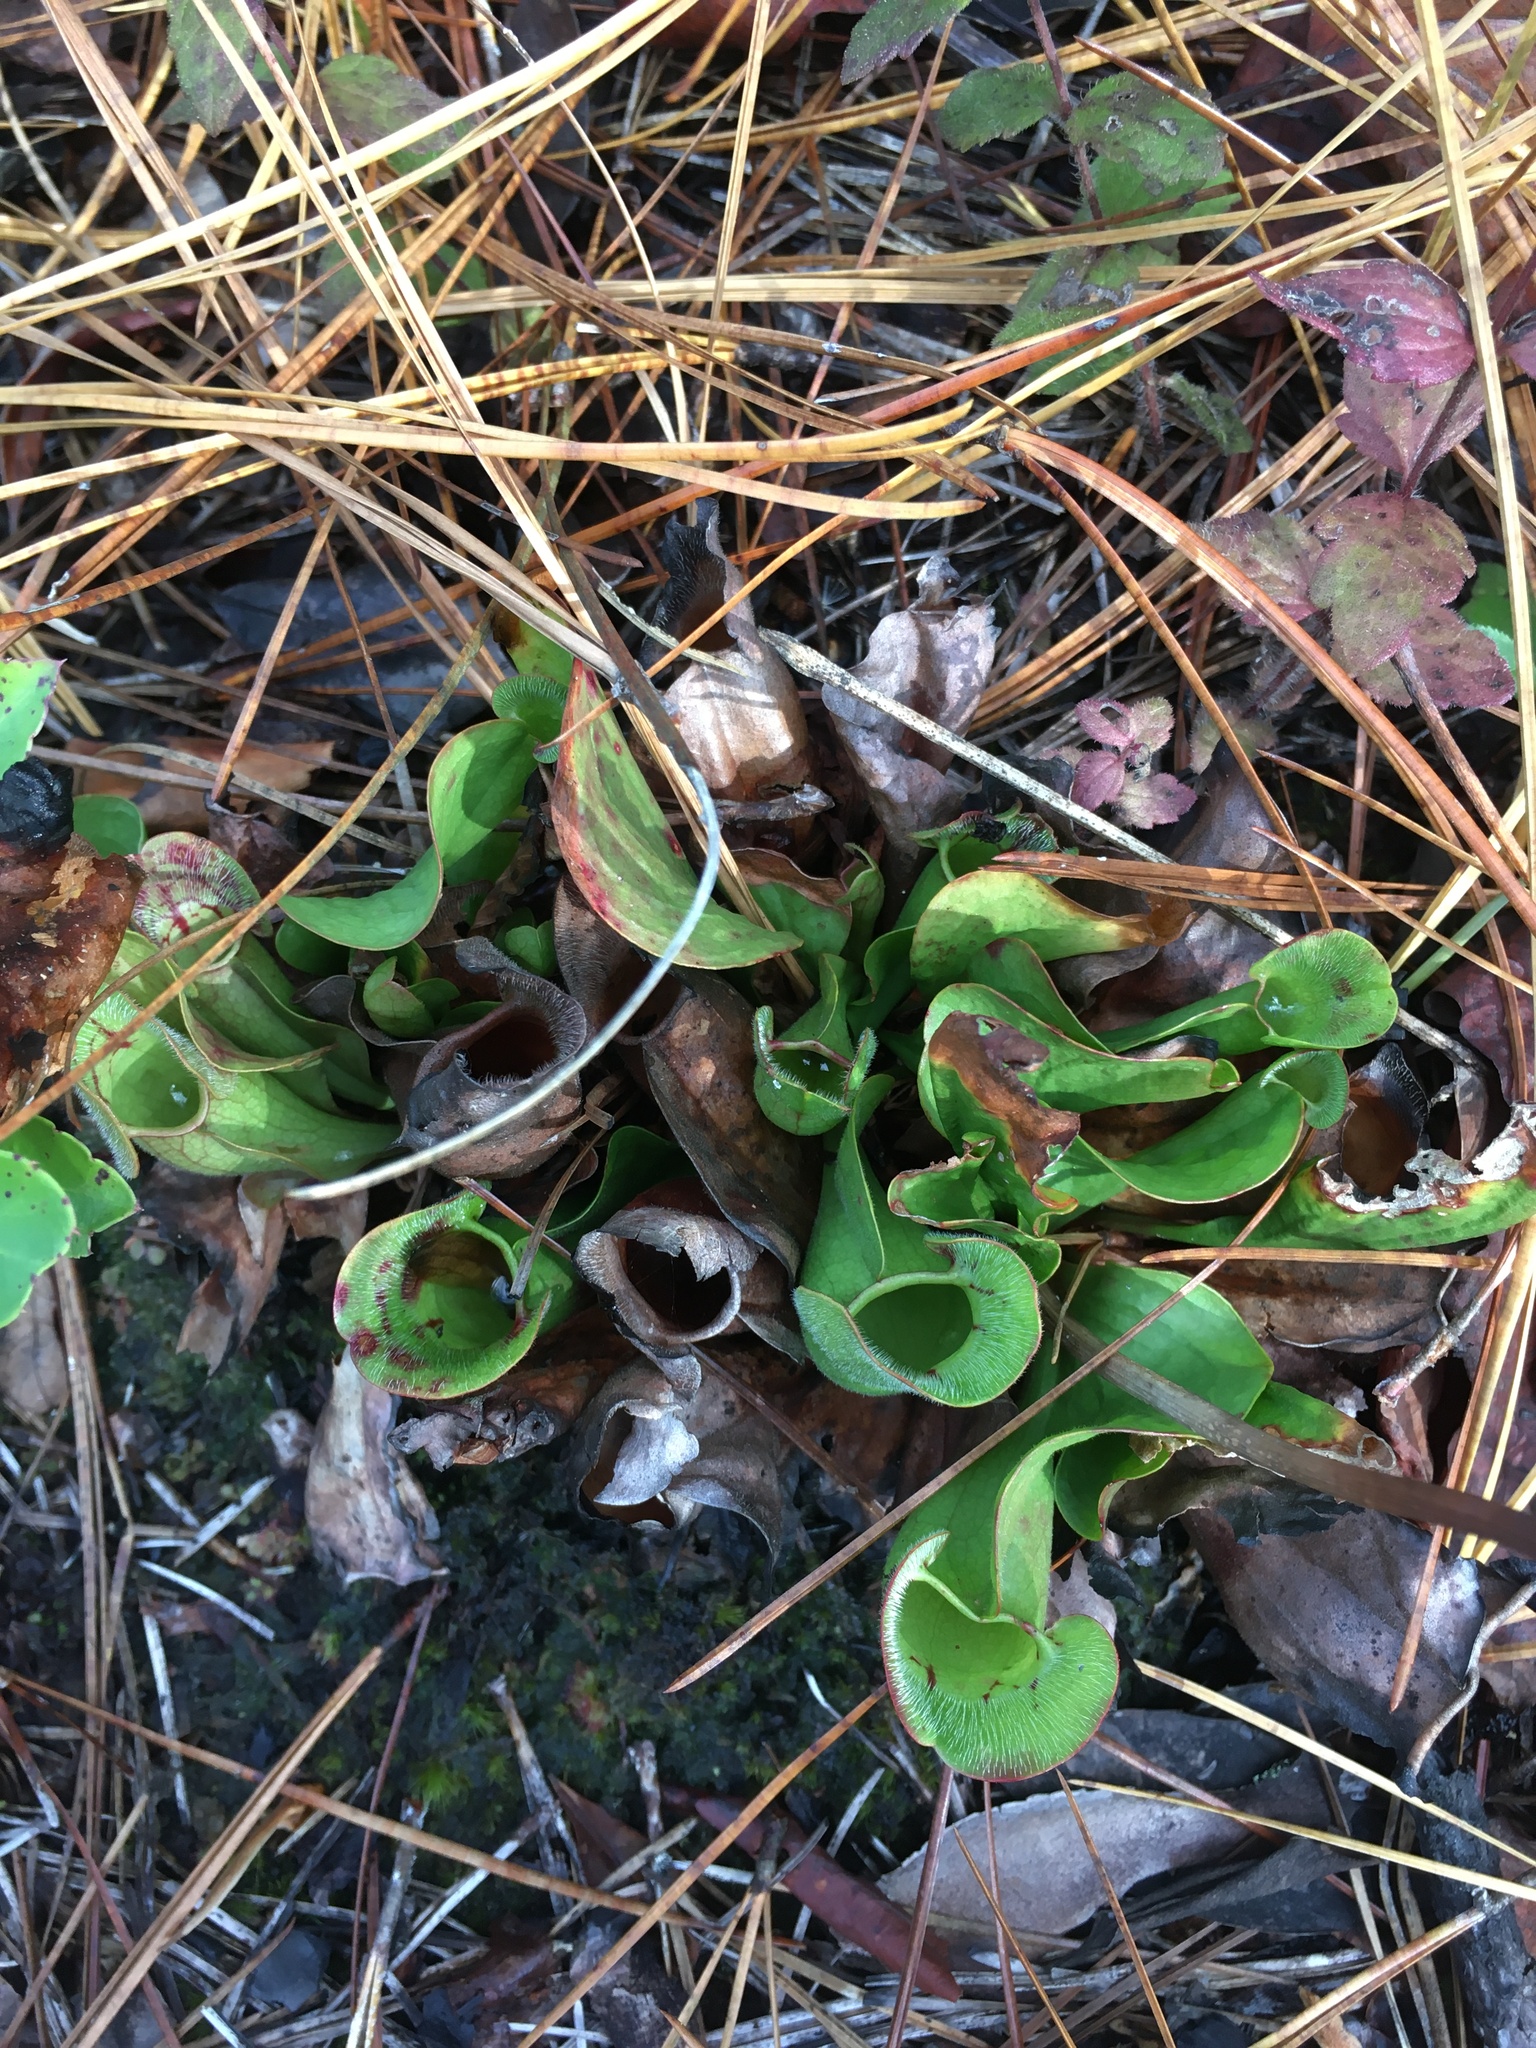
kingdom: Plantae
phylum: Tracheophyta
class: Magnoliopsida
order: Ericales
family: Sarraceniaceae
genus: Sarracenia
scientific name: Sarracenia purpurea
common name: Pitcherplant
